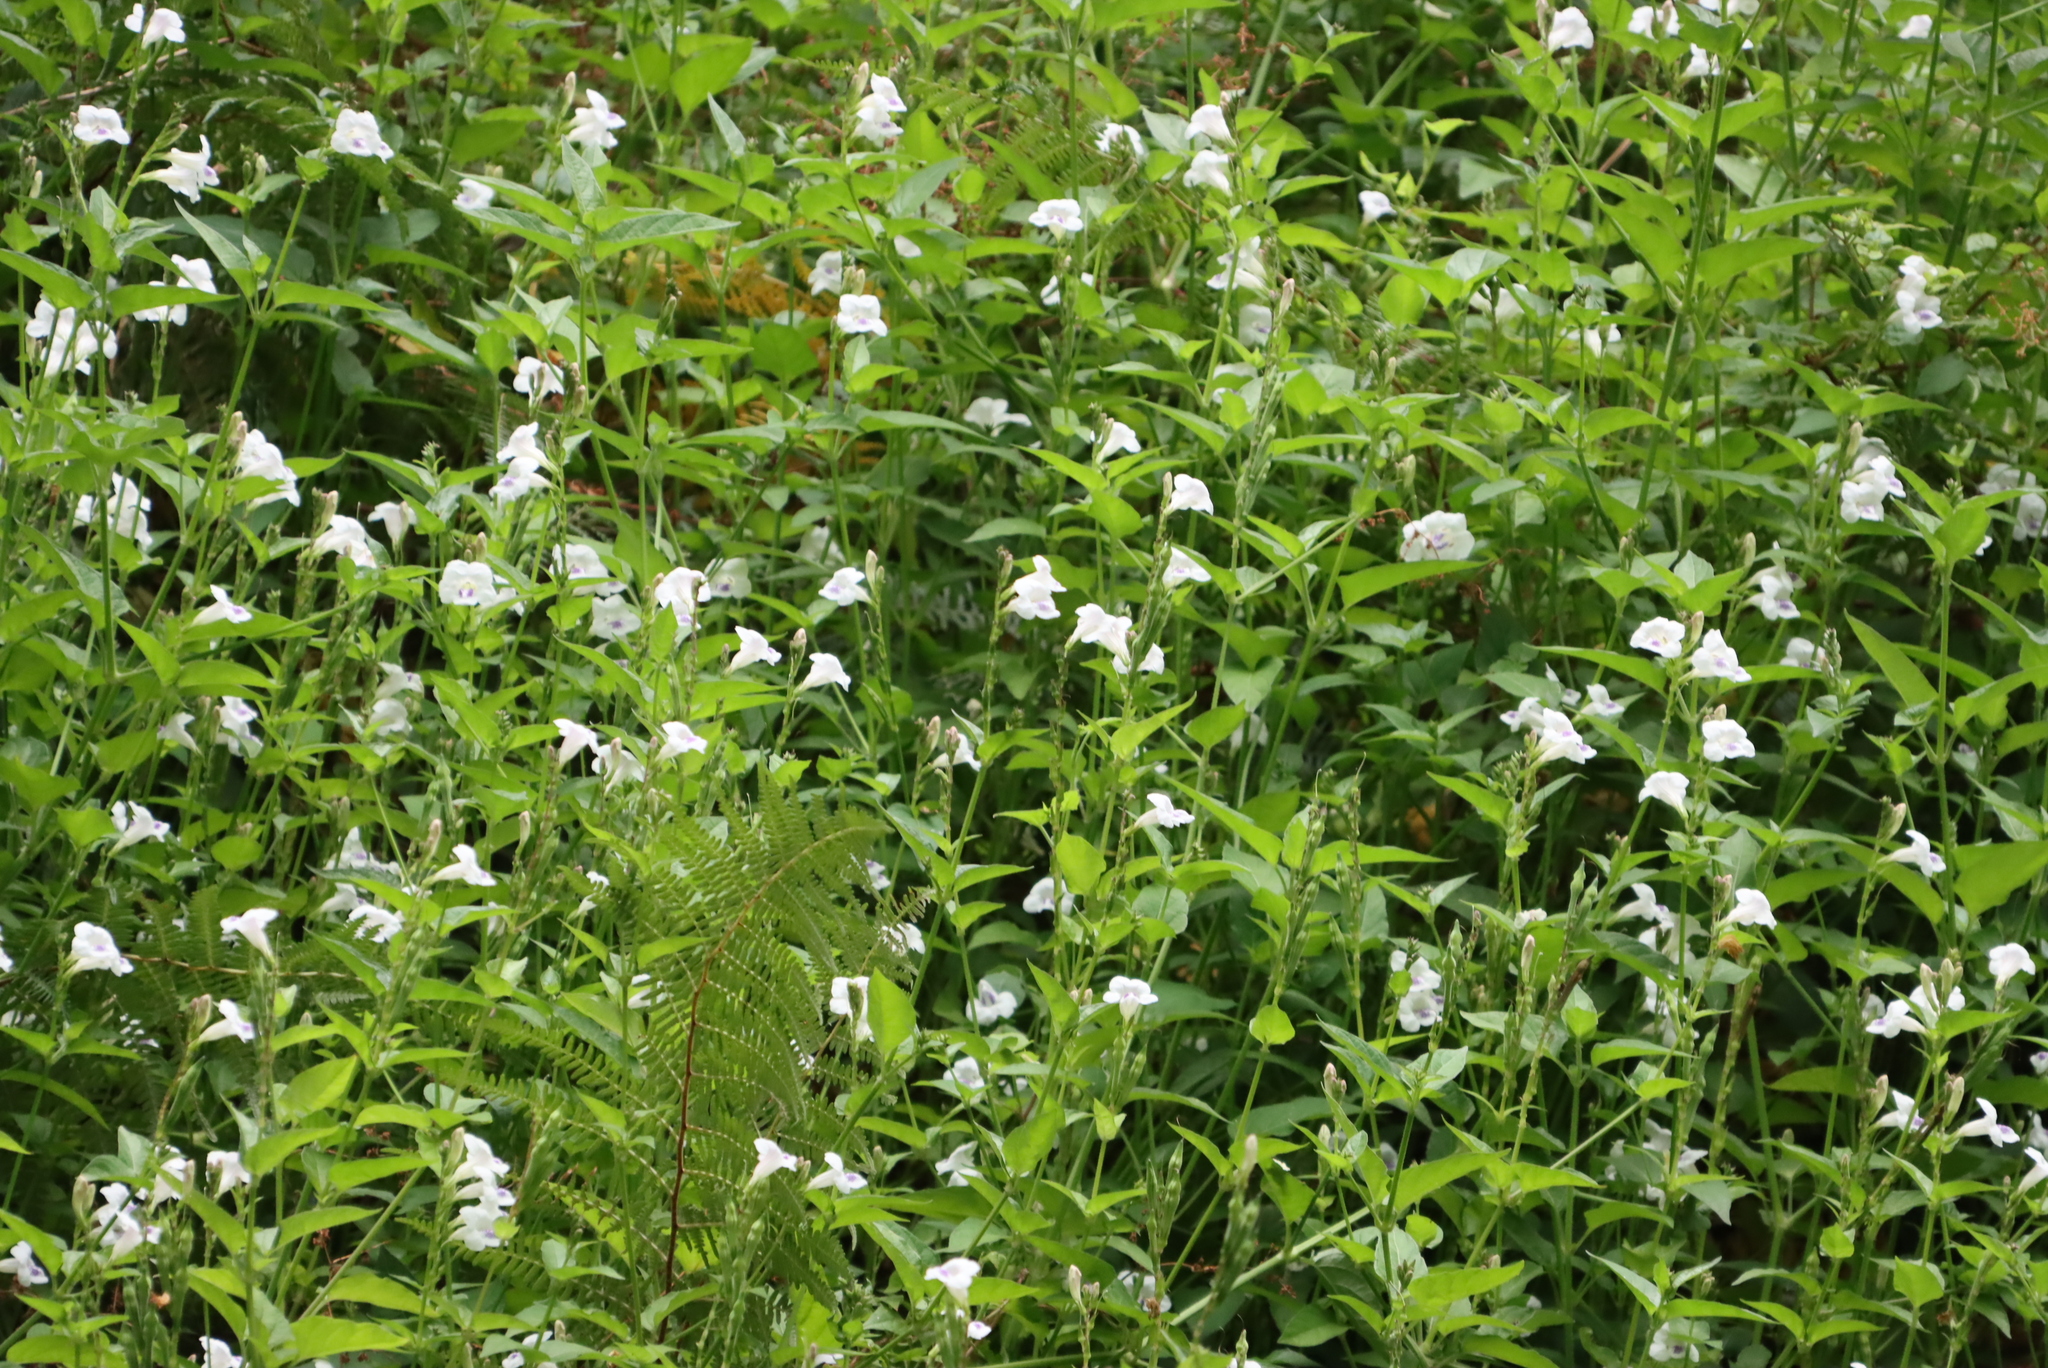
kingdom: Plantae
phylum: Tracheophyta
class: Magnoliopsida
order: Lamiales
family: Acanthaceae
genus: Asystasia
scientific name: Asystasia intrusa
